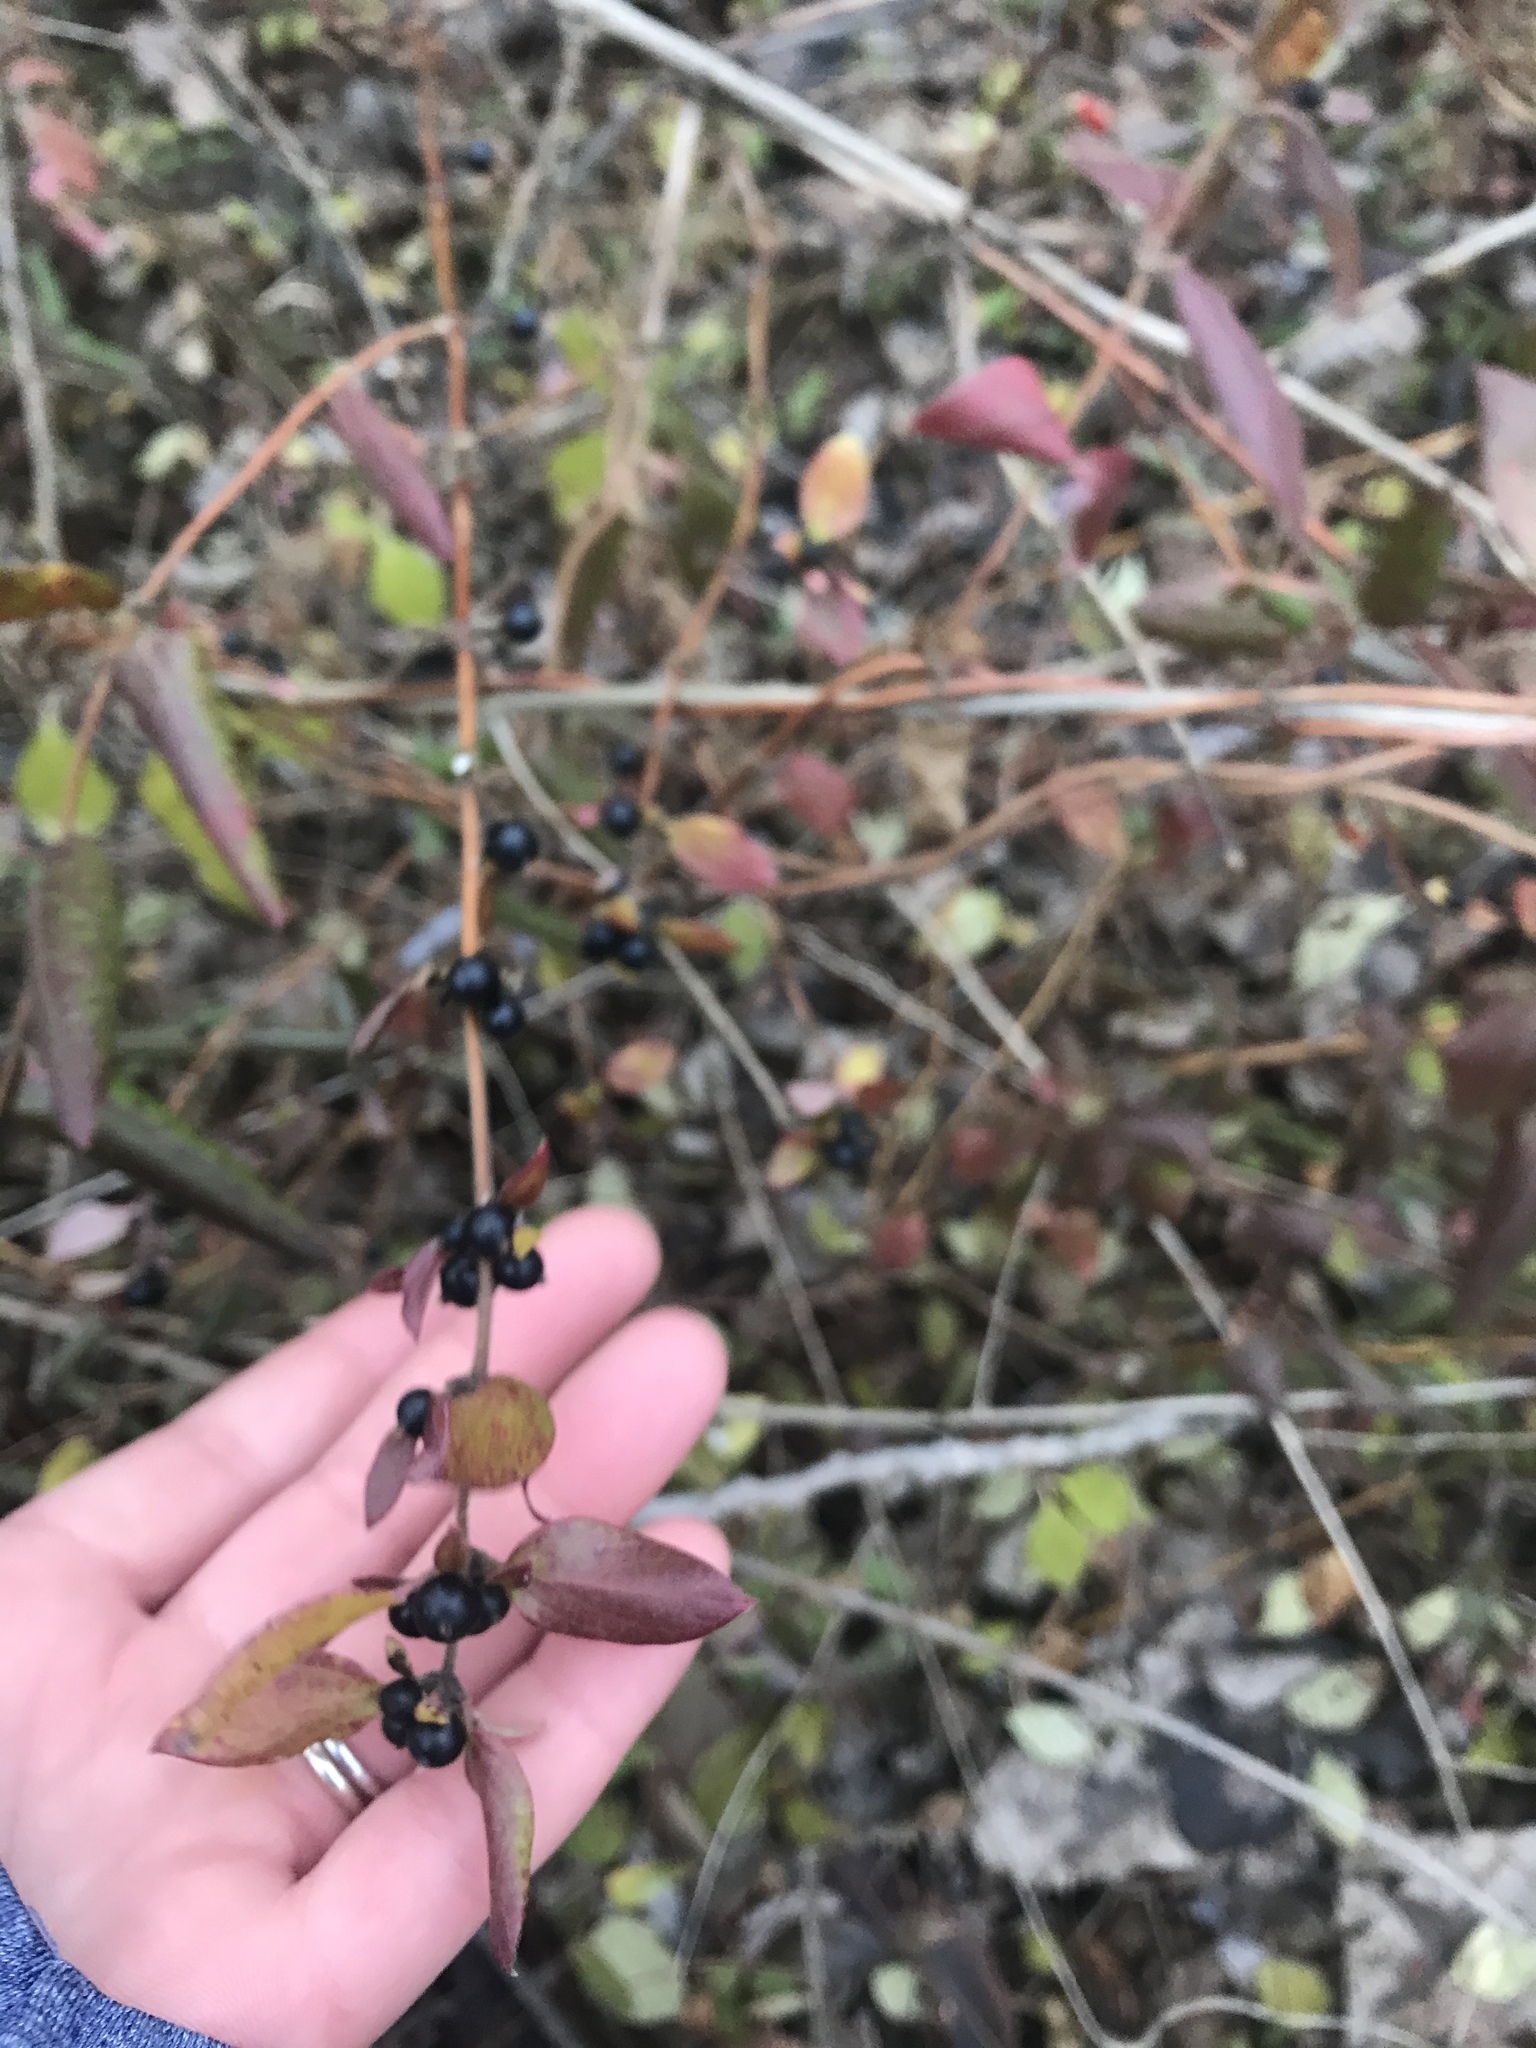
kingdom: Plantae
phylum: Tracheophyta
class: Magnoliopsida
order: Dipsacales
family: Caprifoliaceae
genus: Lonicera
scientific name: Lonicera japonica
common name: Japanese honeysuckle
